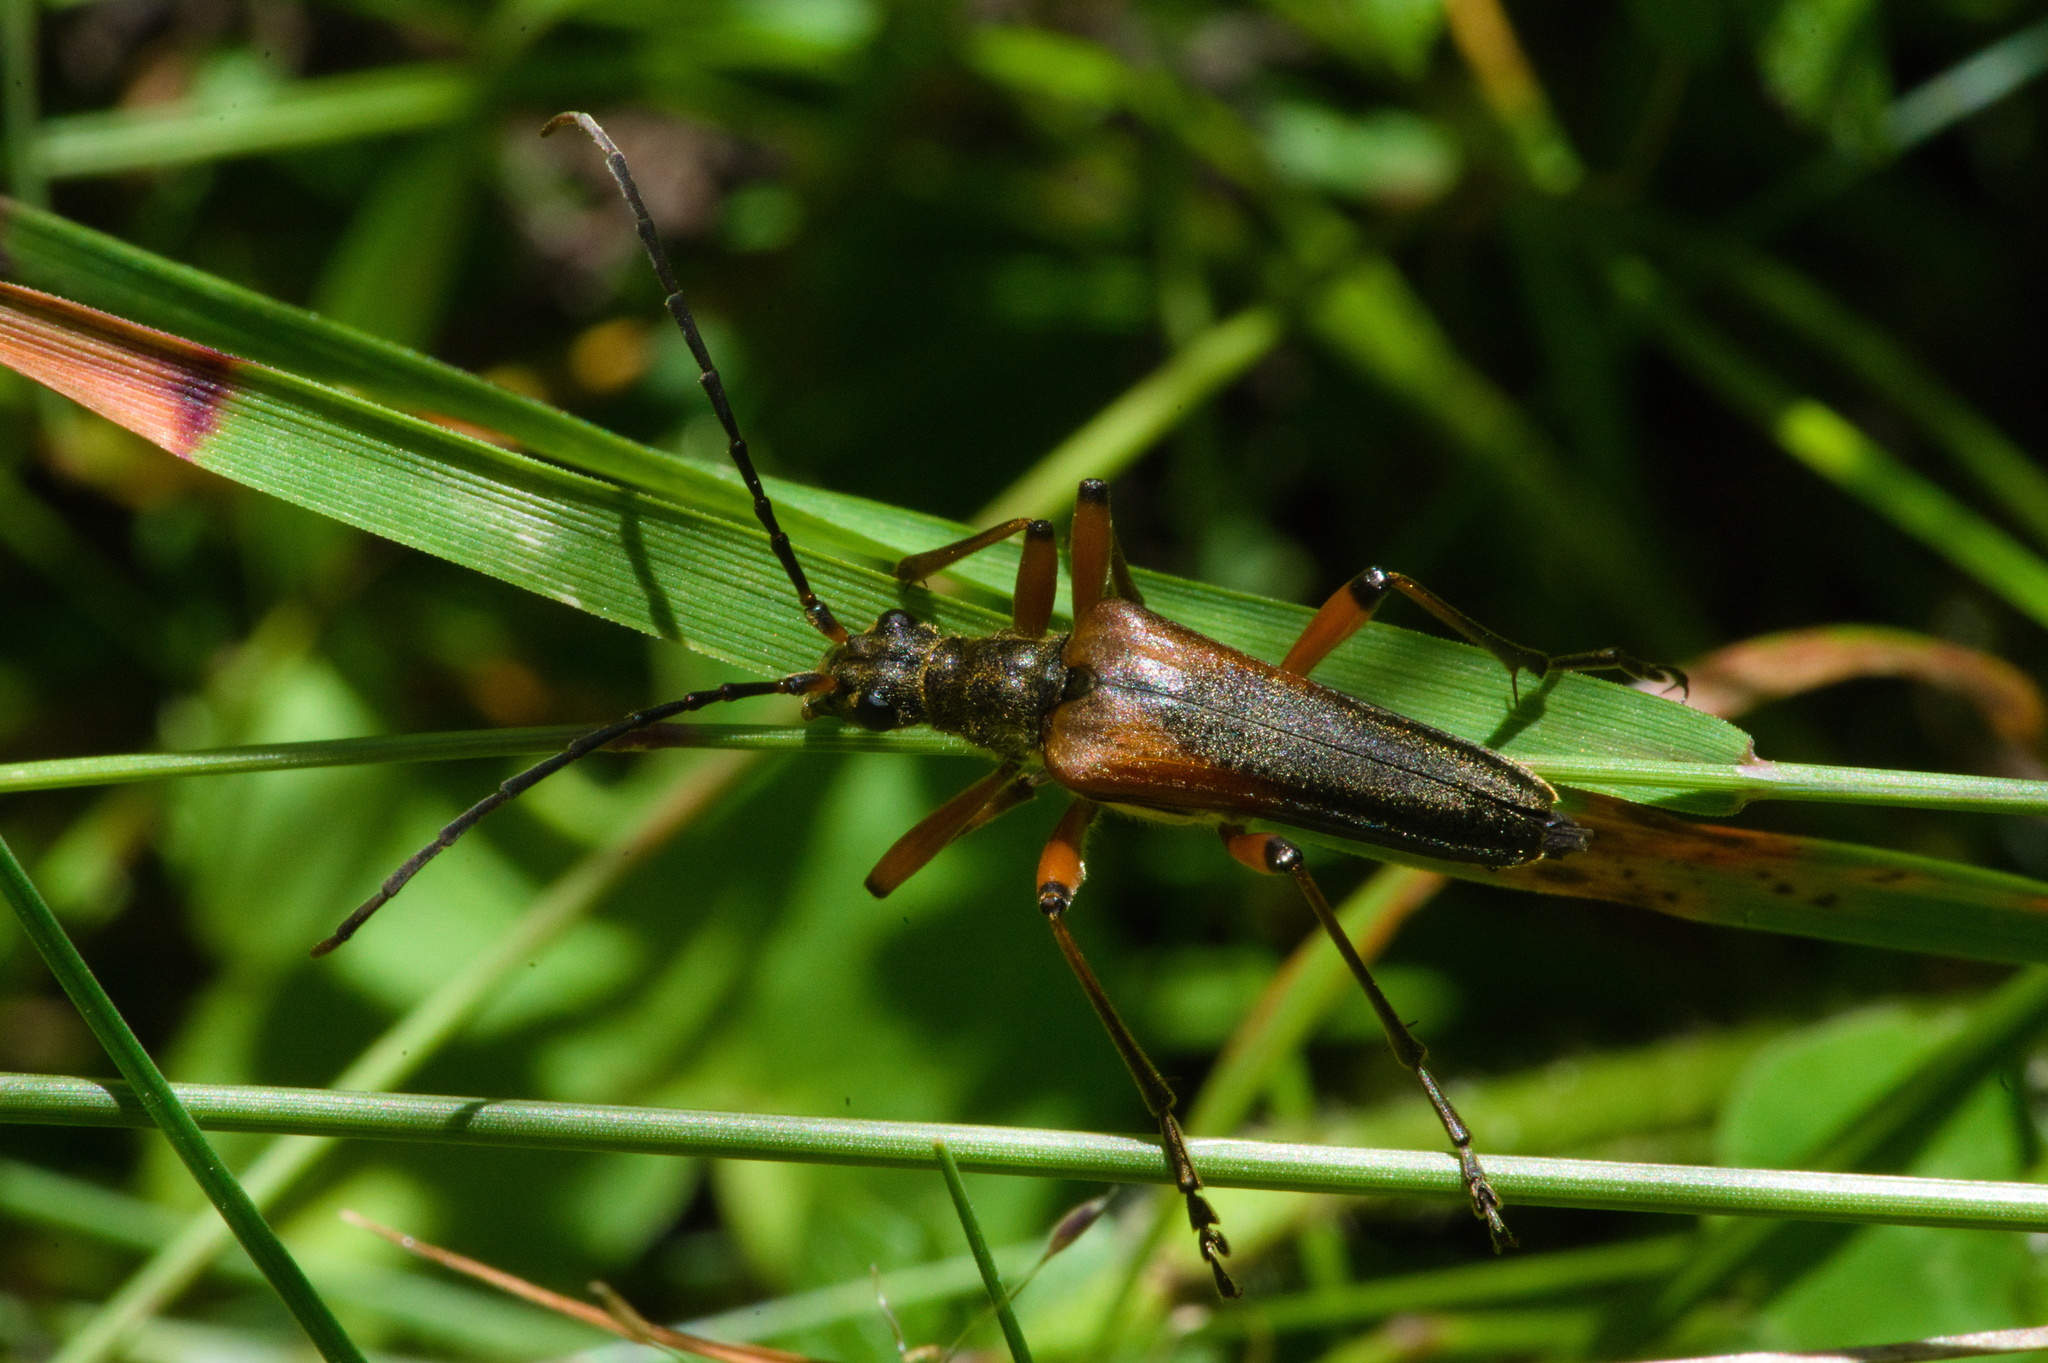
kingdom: Animalia
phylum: Arthropoda
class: Insecta
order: Coleoptera
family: Cerambycidae
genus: Stenocorus
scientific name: Stenocorus meridianus
